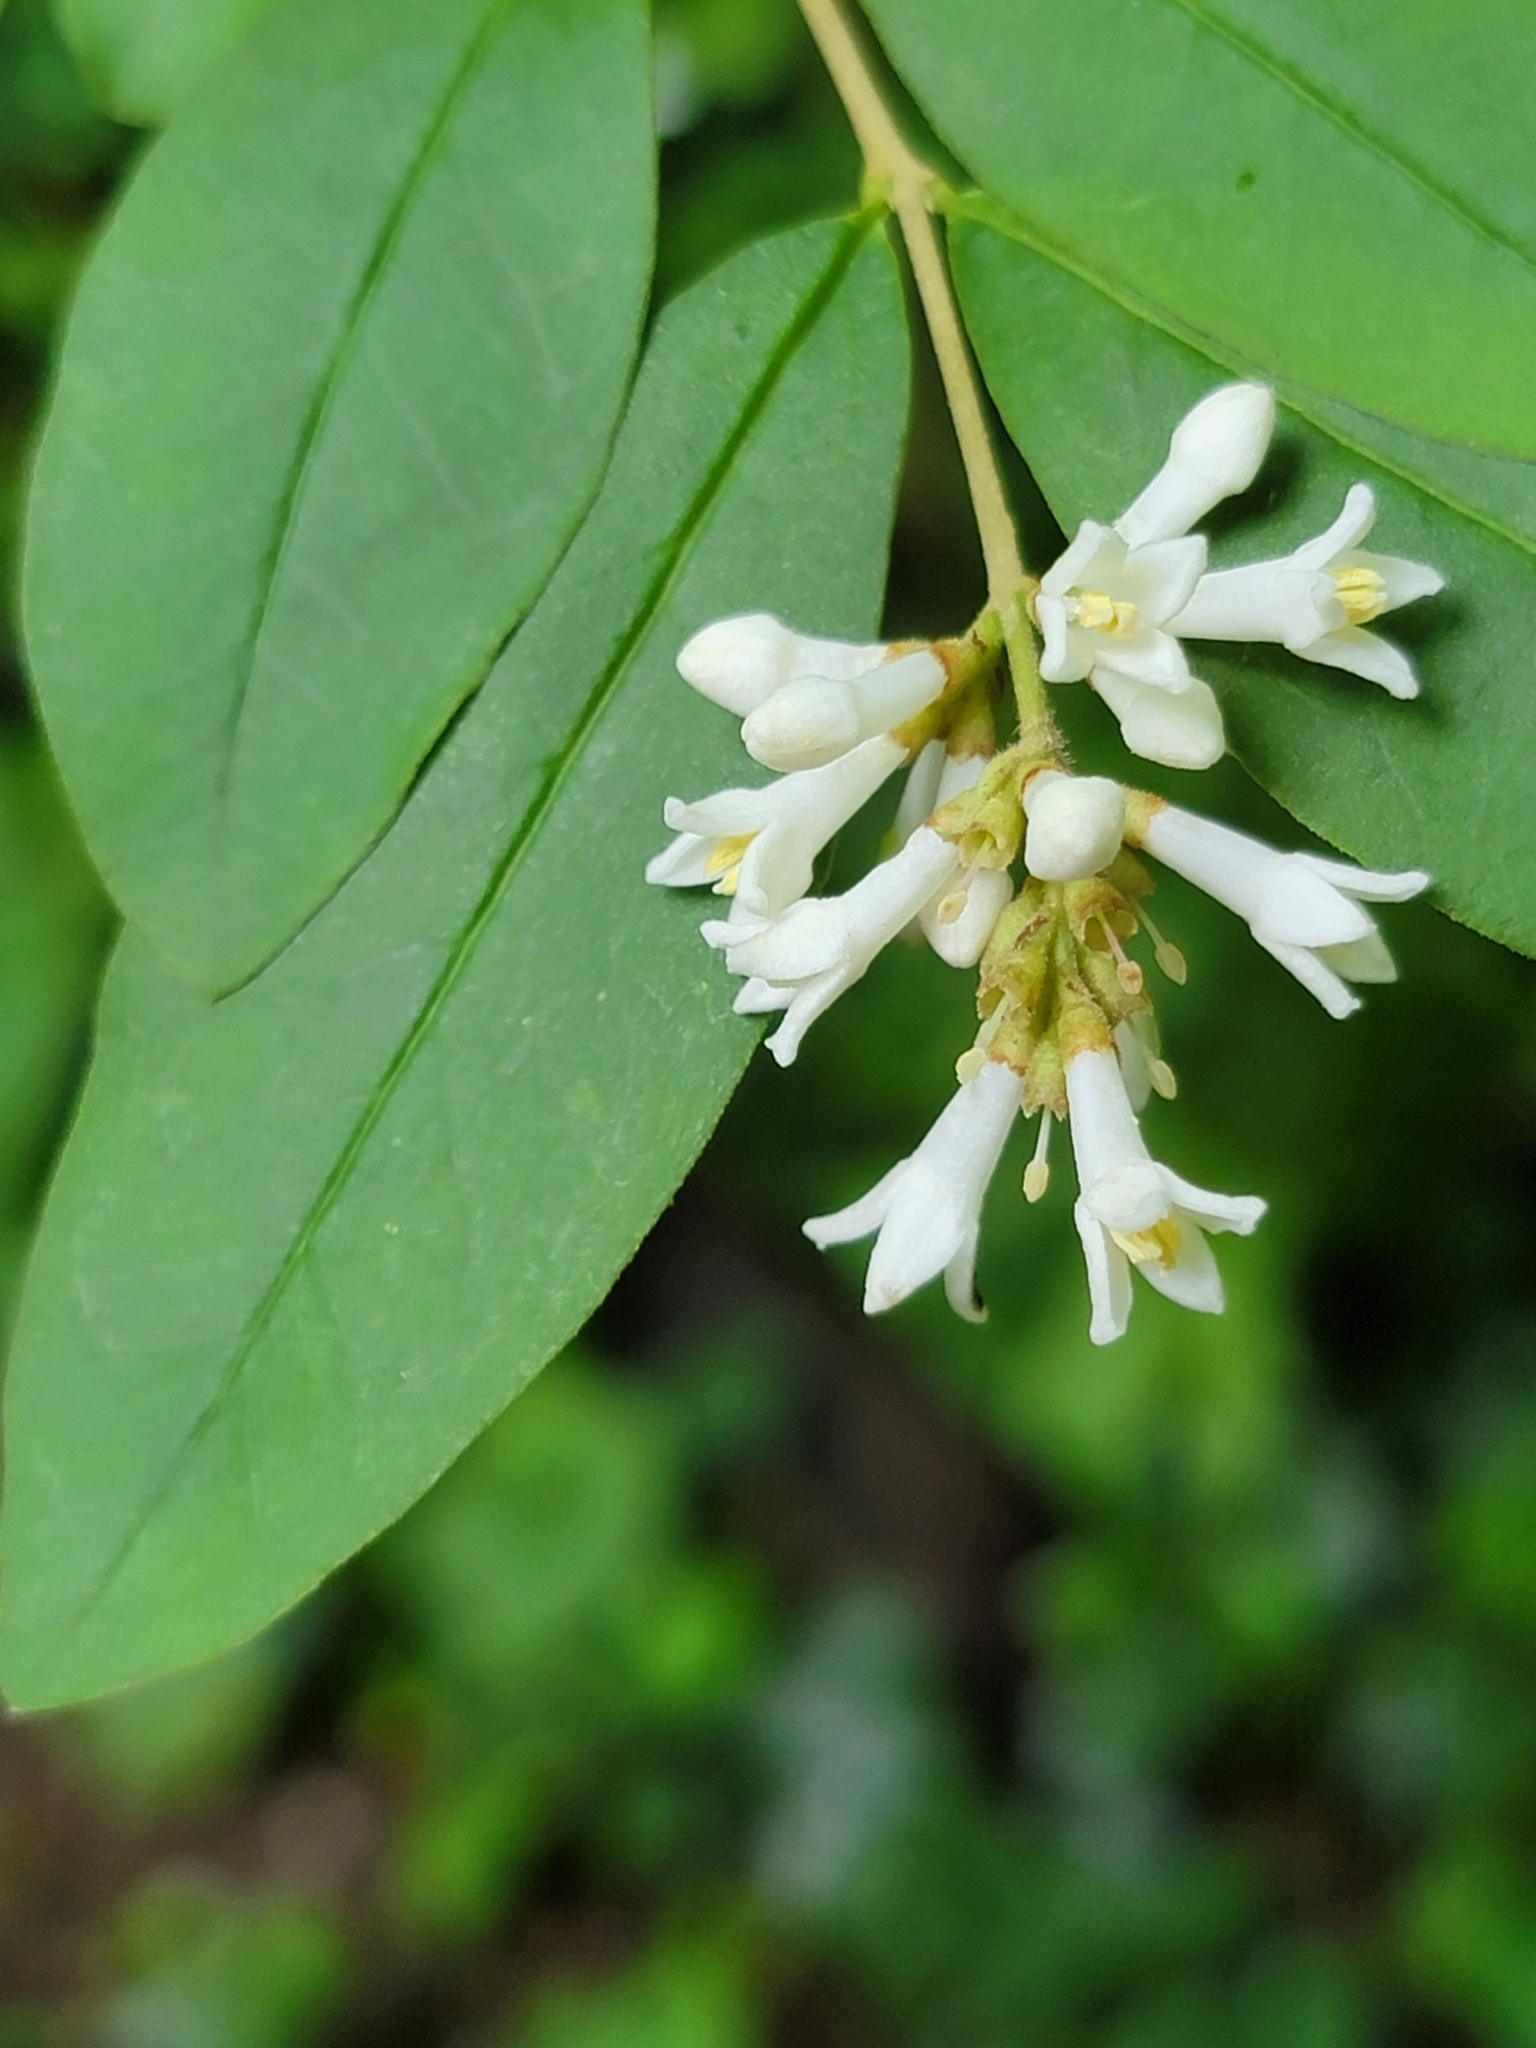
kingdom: Plantae
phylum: Tracheophyta
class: Magnoliopsida
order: Lamiales
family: Oleaceae
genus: Ligustrum
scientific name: Ligustrum obtusifolium
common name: Border privet
